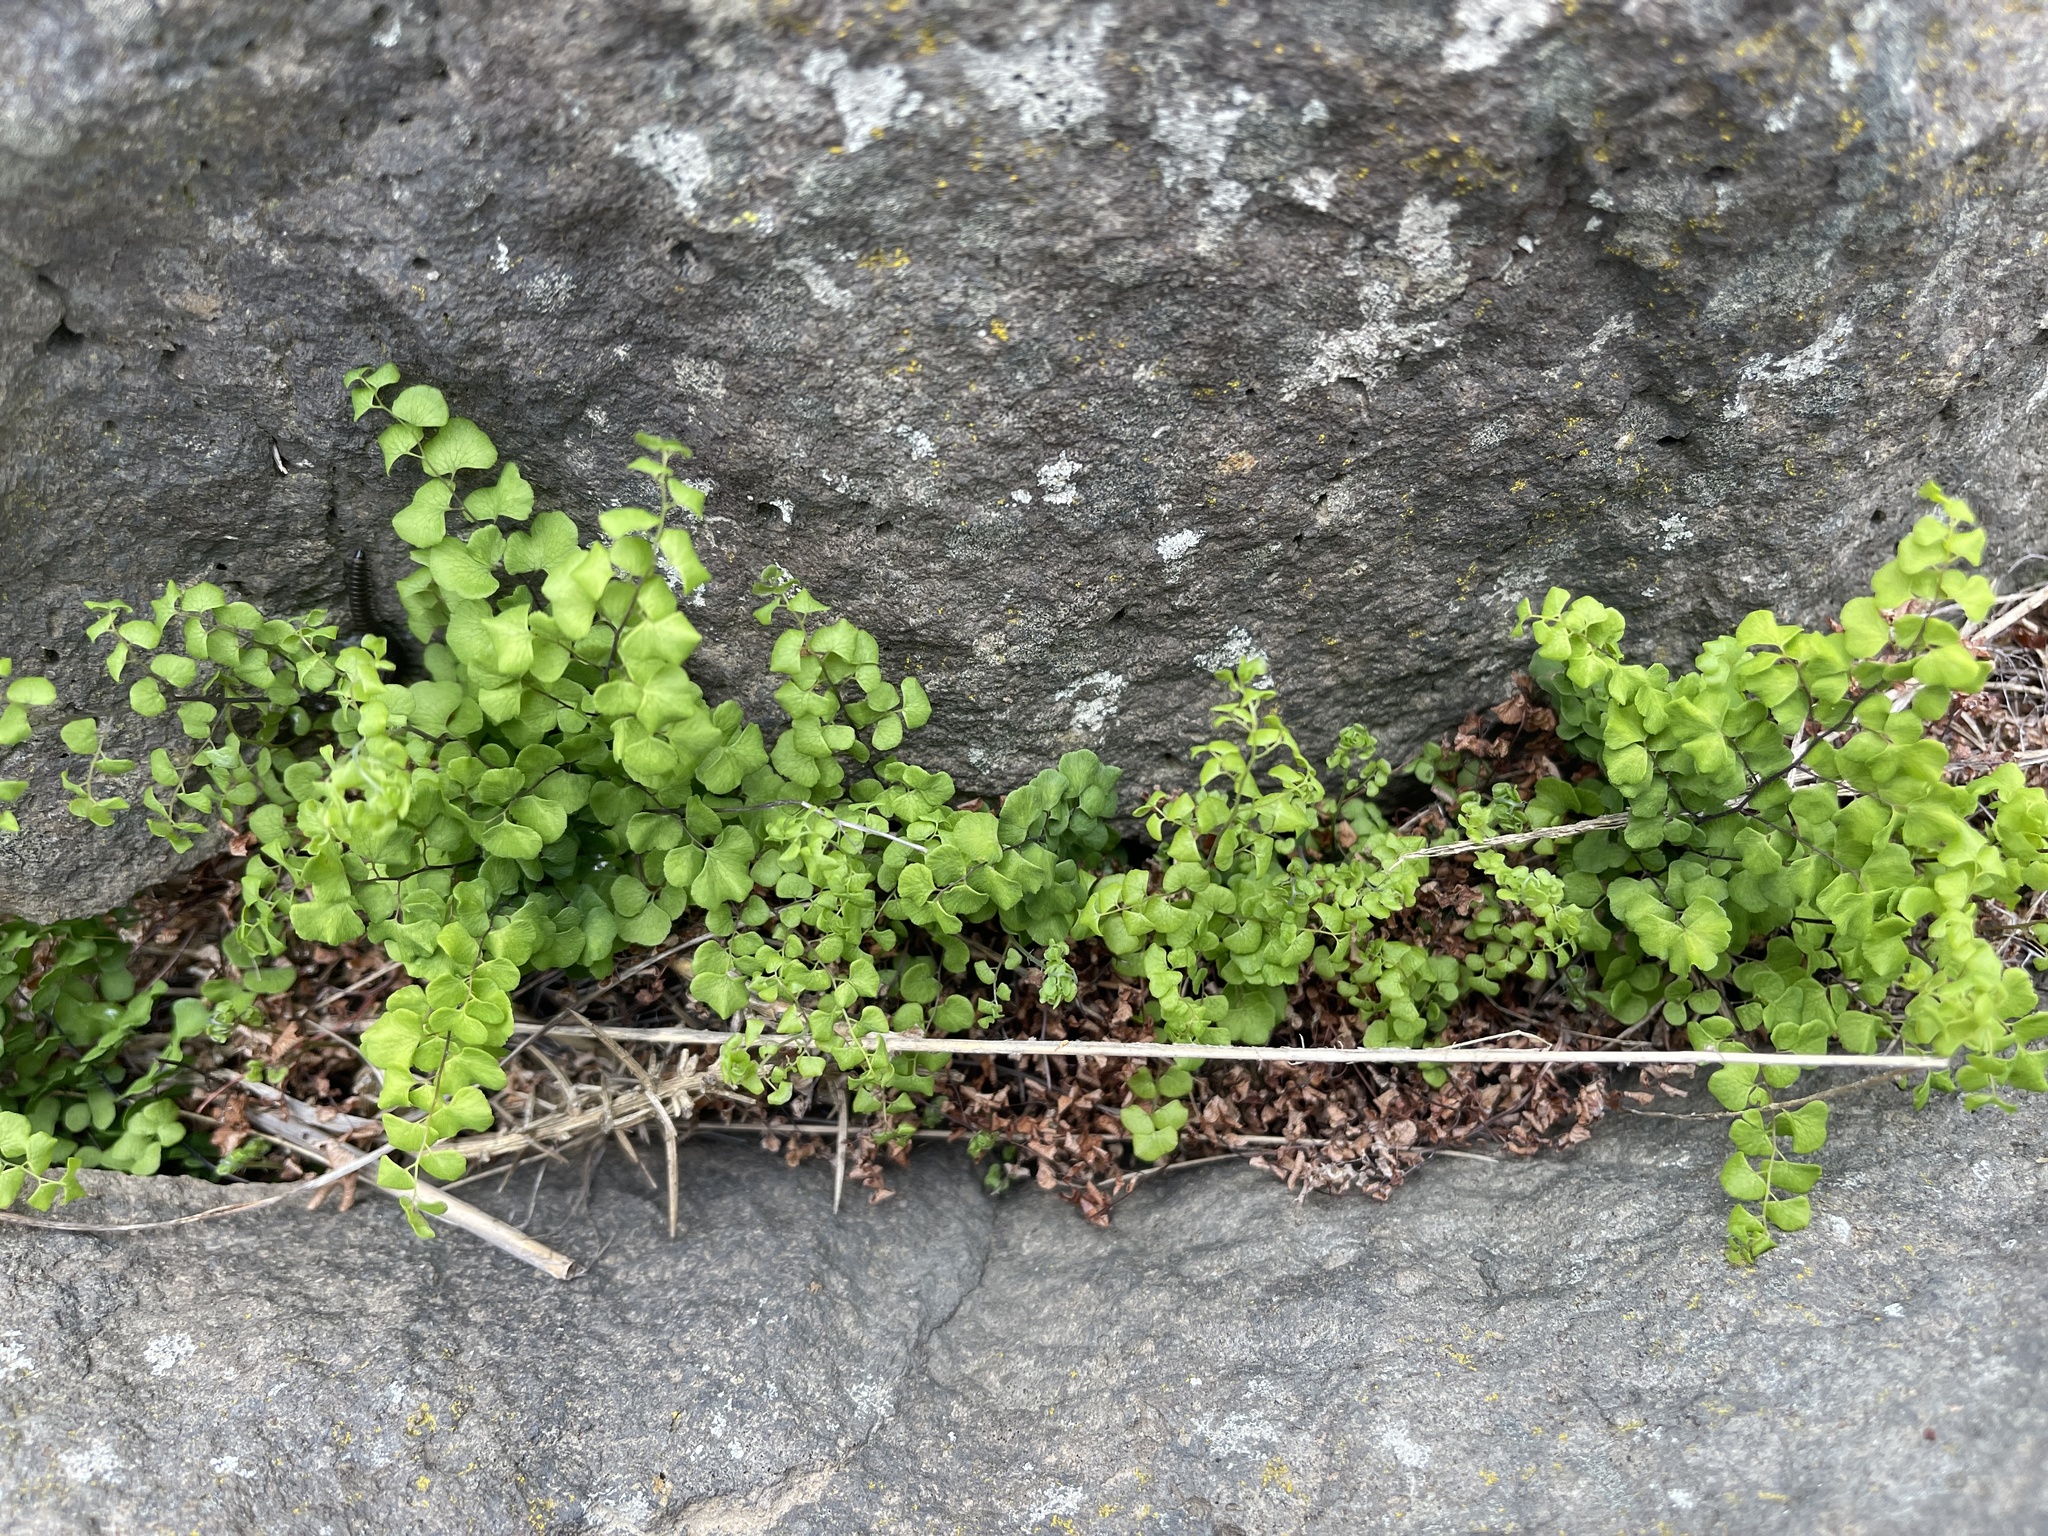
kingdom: Plantae
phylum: Tracheophyta
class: Polypodiopsida
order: Polypodiales
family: Pteridaceae
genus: Adiantum
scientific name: Adiantum aethiopicum
